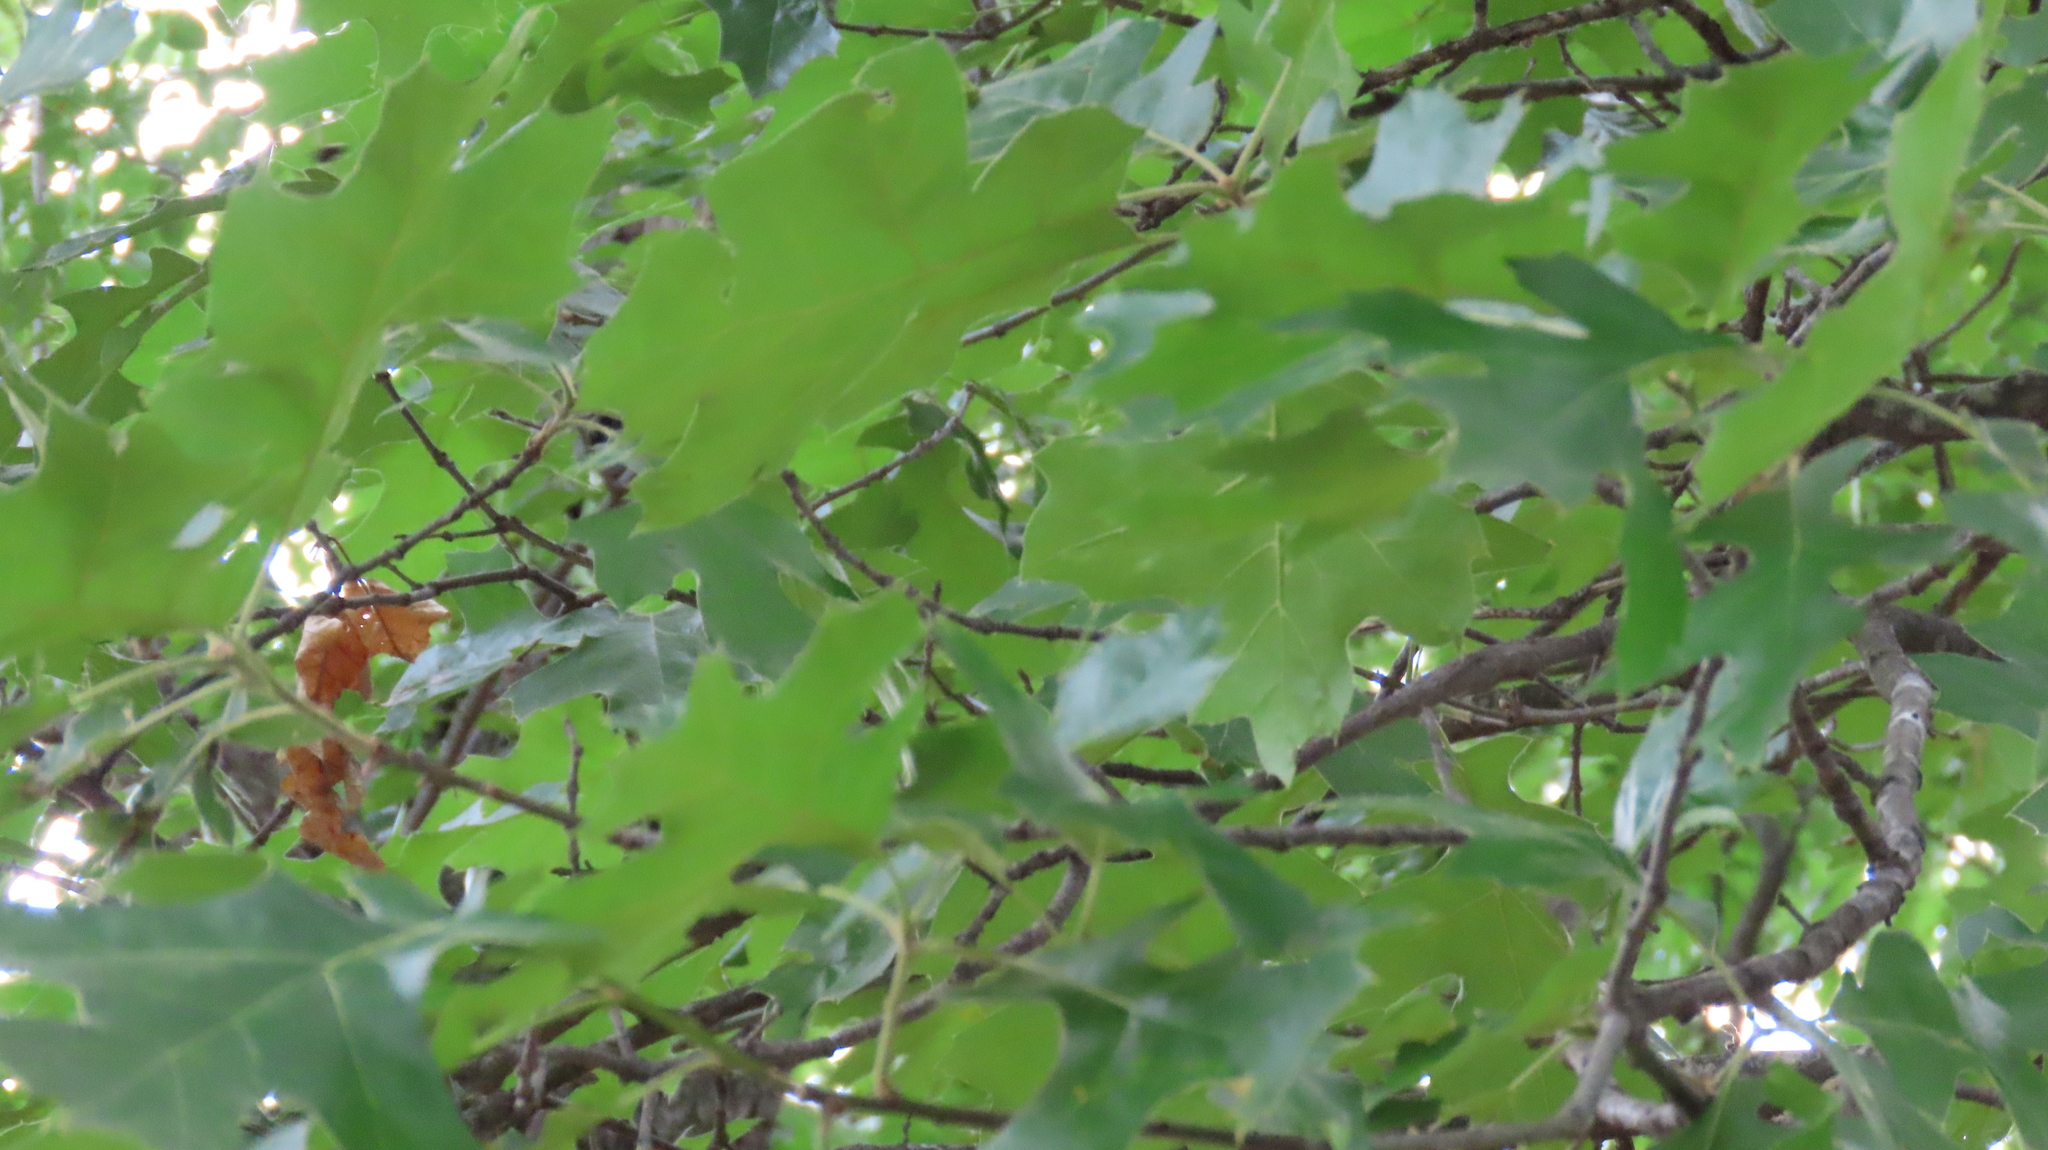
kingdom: Plantae
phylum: Tracheophyta
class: Magnoliopsida
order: Fagales
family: Fagaceae
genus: Quercus
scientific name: Quercus velutina
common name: Black oak
